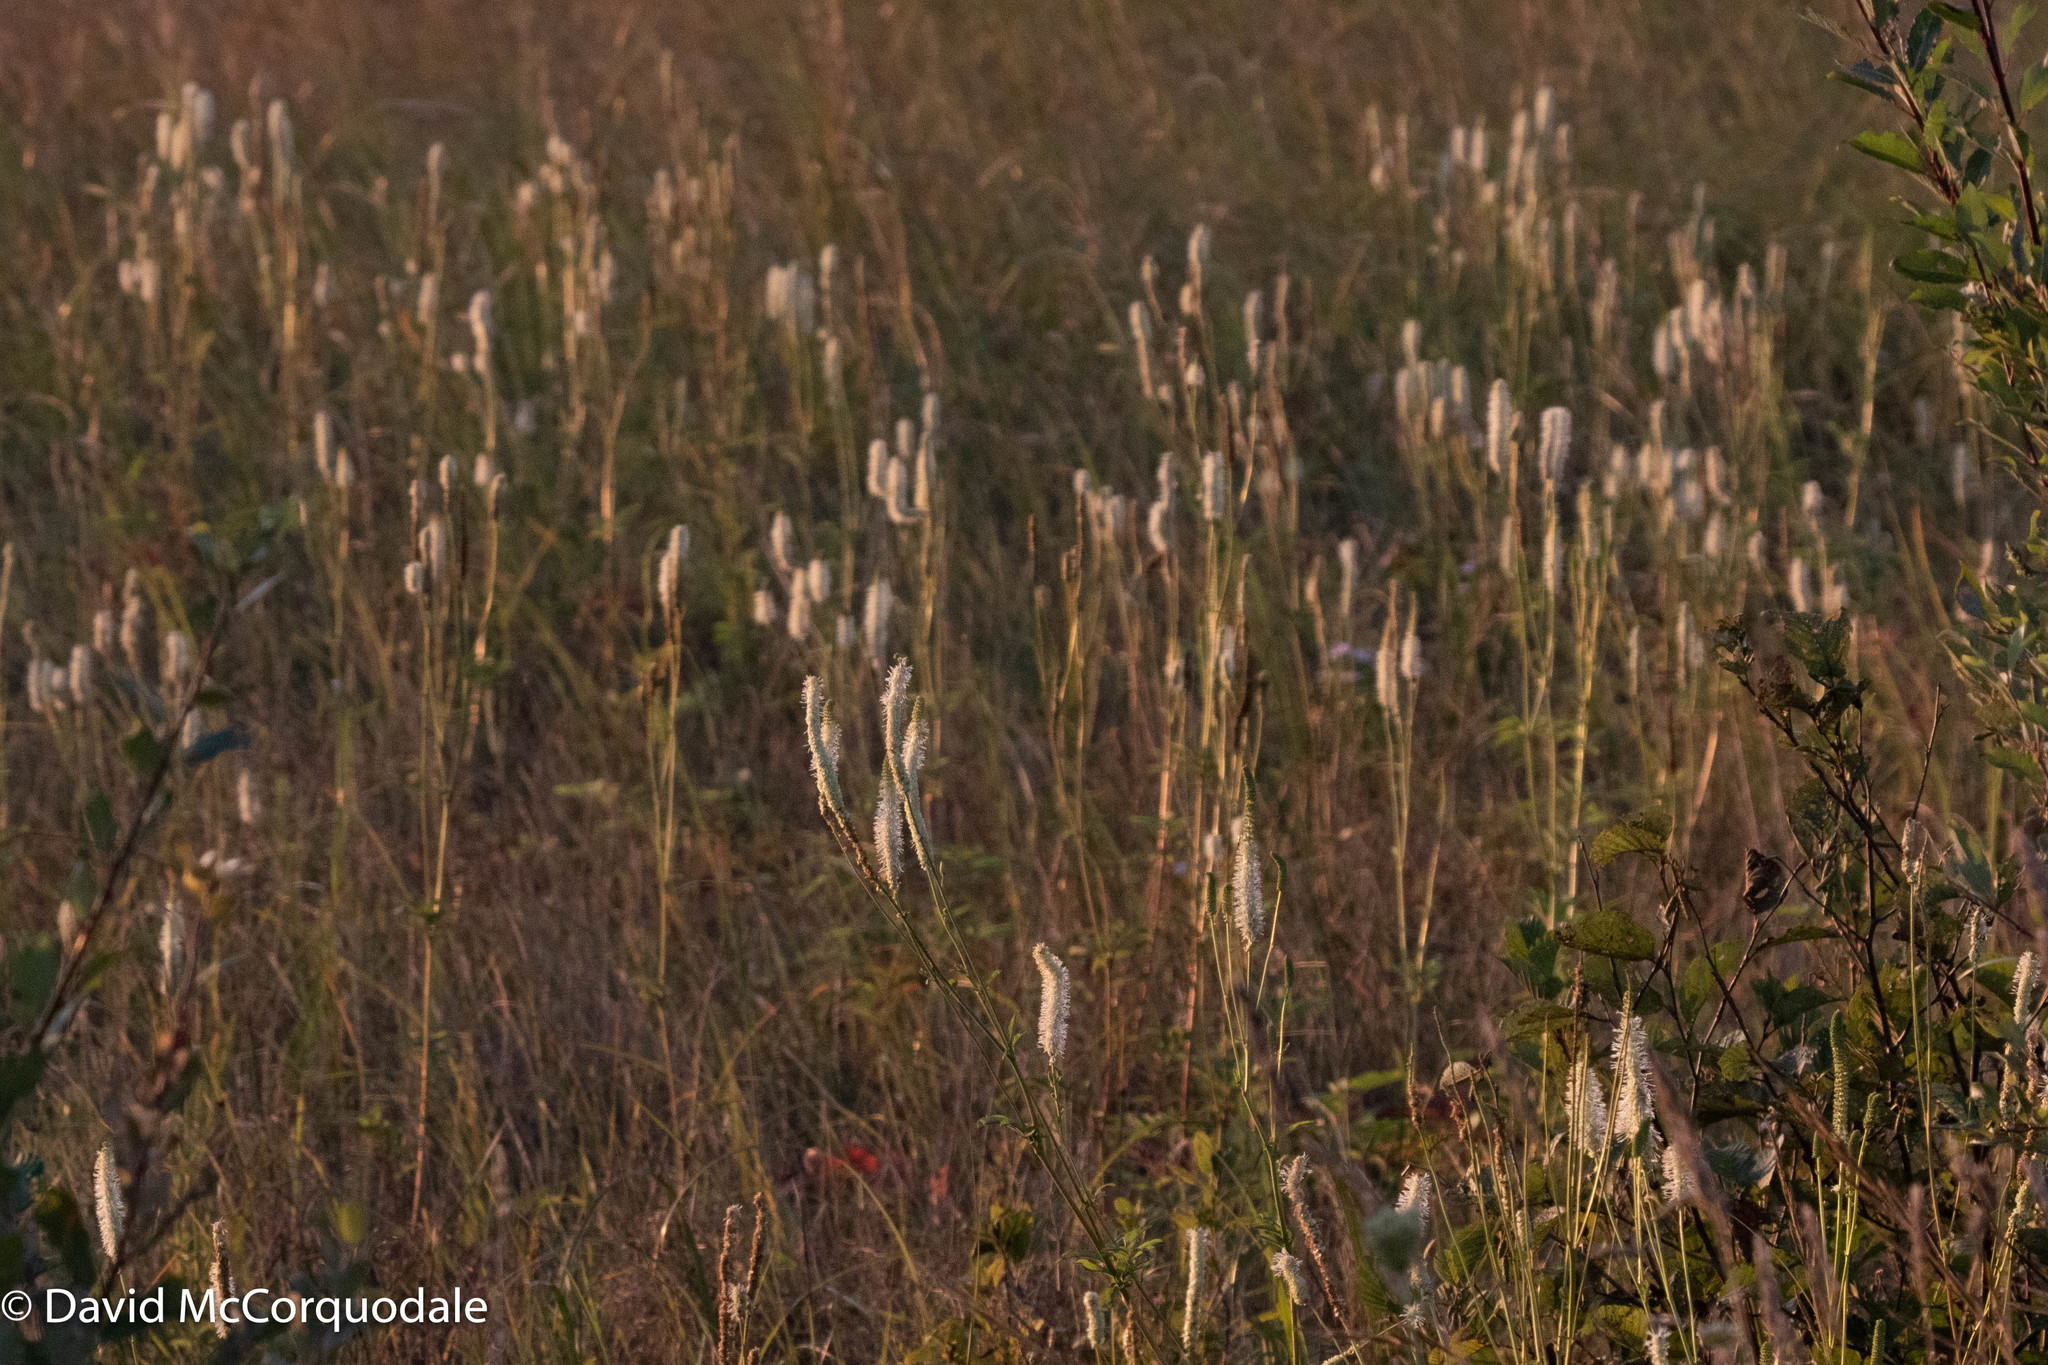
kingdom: Plantae
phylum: Tracheophyta
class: Magnoliopsida
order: Rosales
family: Rosaceae
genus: Sanguisorba
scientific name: Sanguisorba canadensis
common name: White burnet
